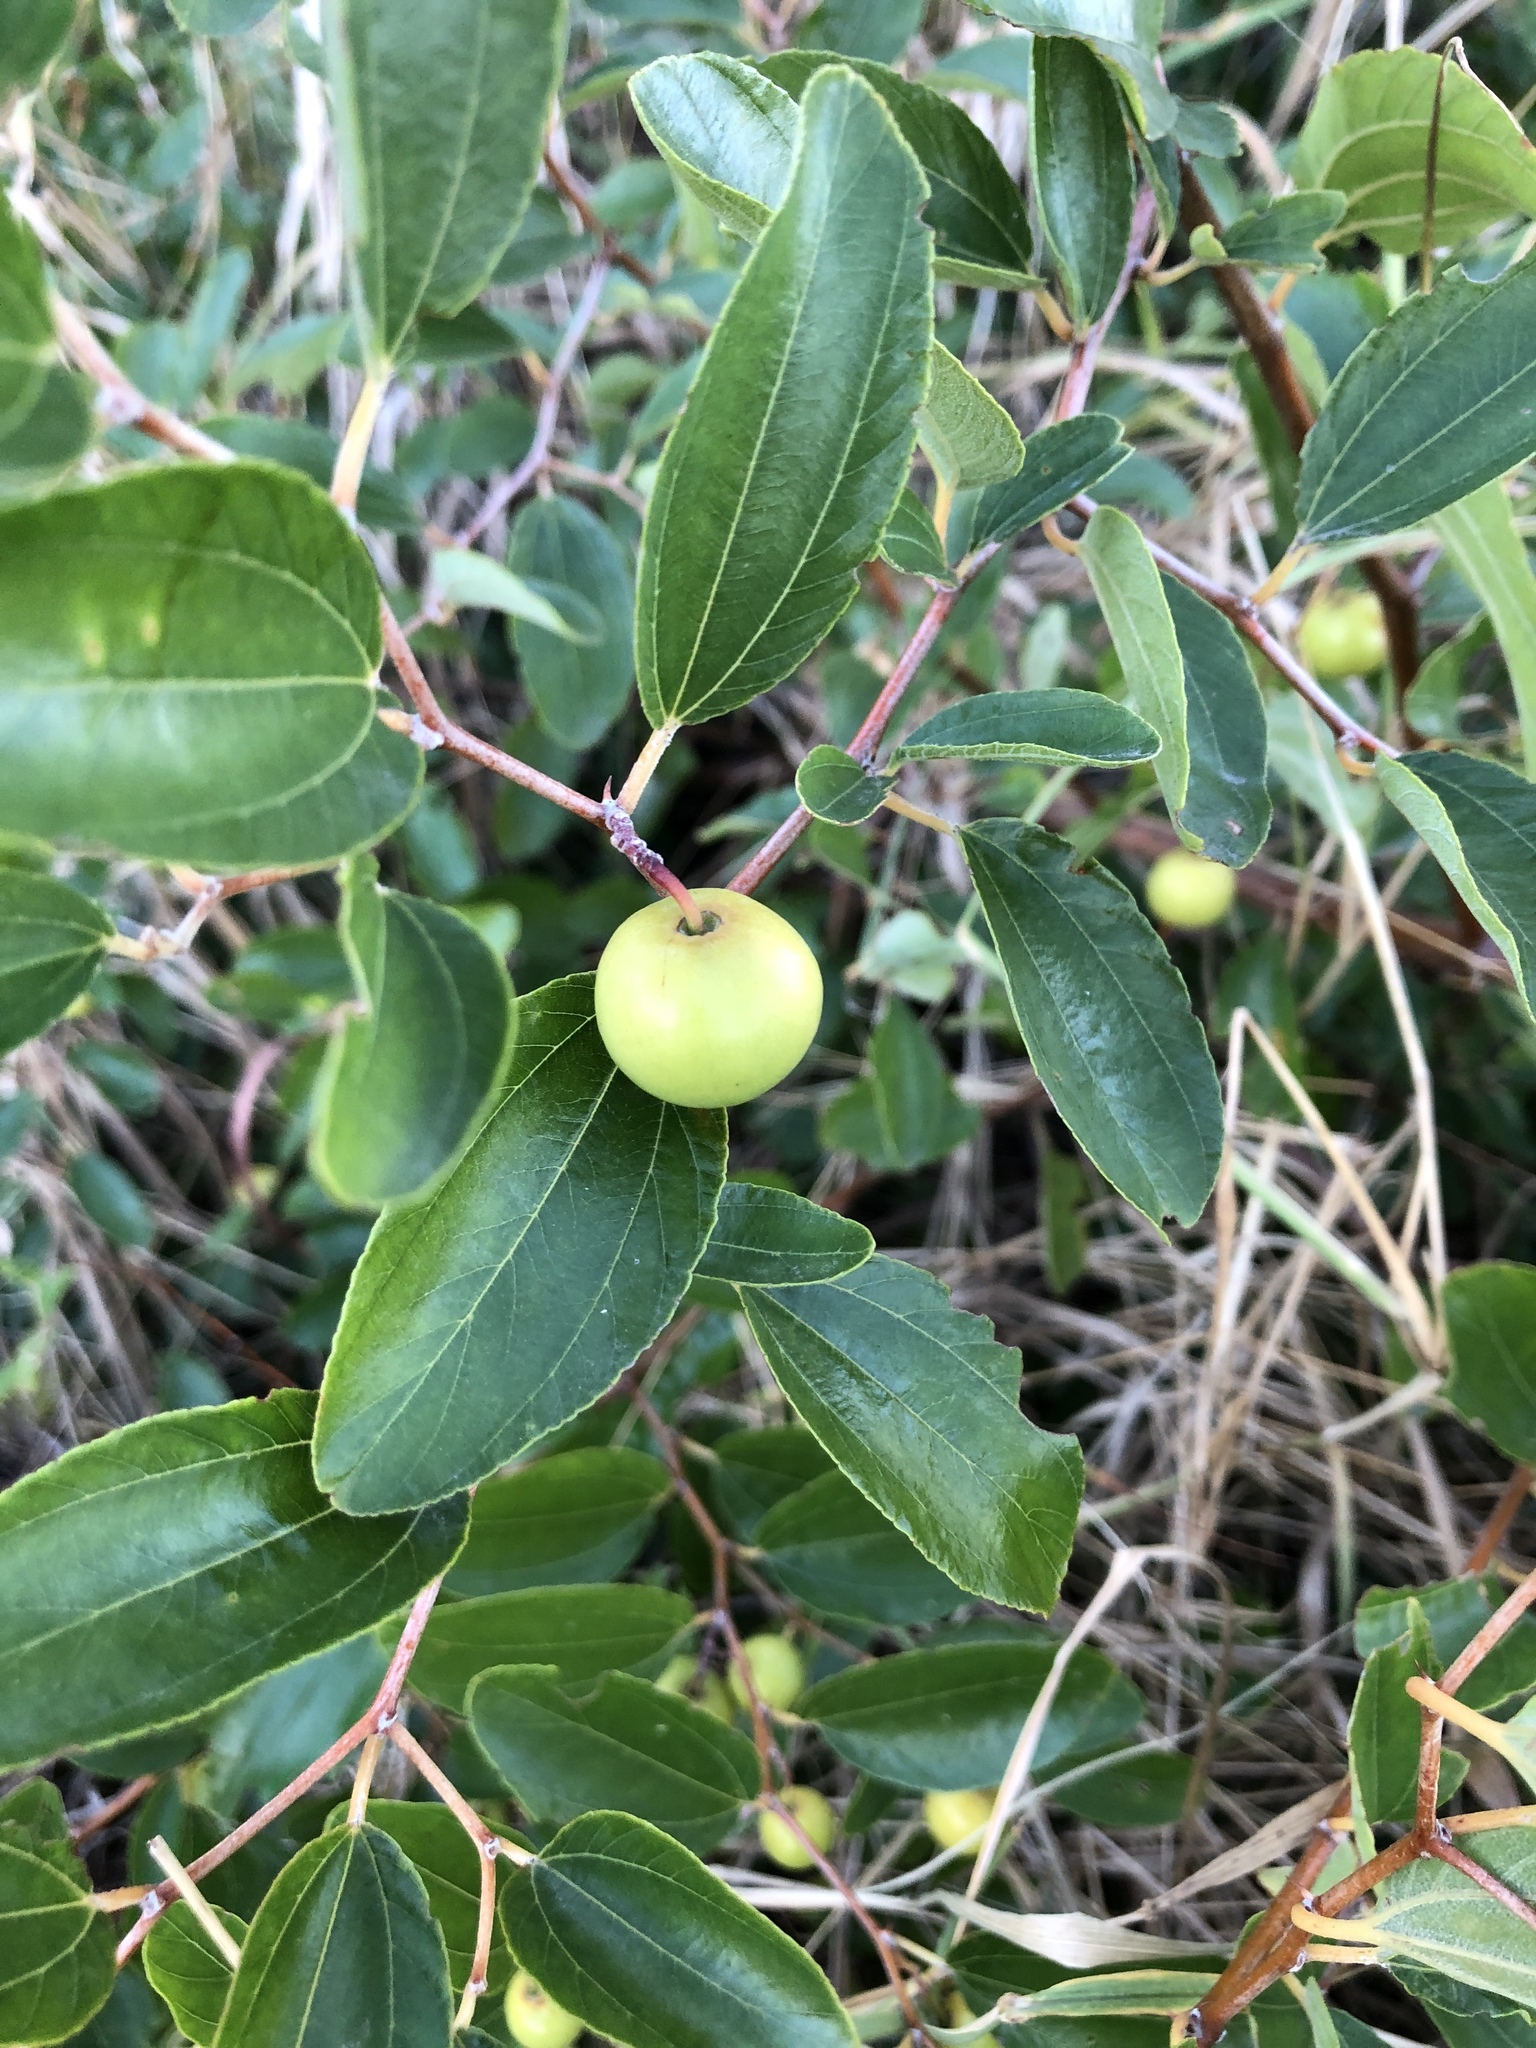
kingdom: Plantae
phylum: Tracheophyta
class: Magnoliopsida
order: Rosales
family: Rhamnaceae
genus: Ziziphus
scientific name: Ziziphus mauritiana
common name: Indian jujube
